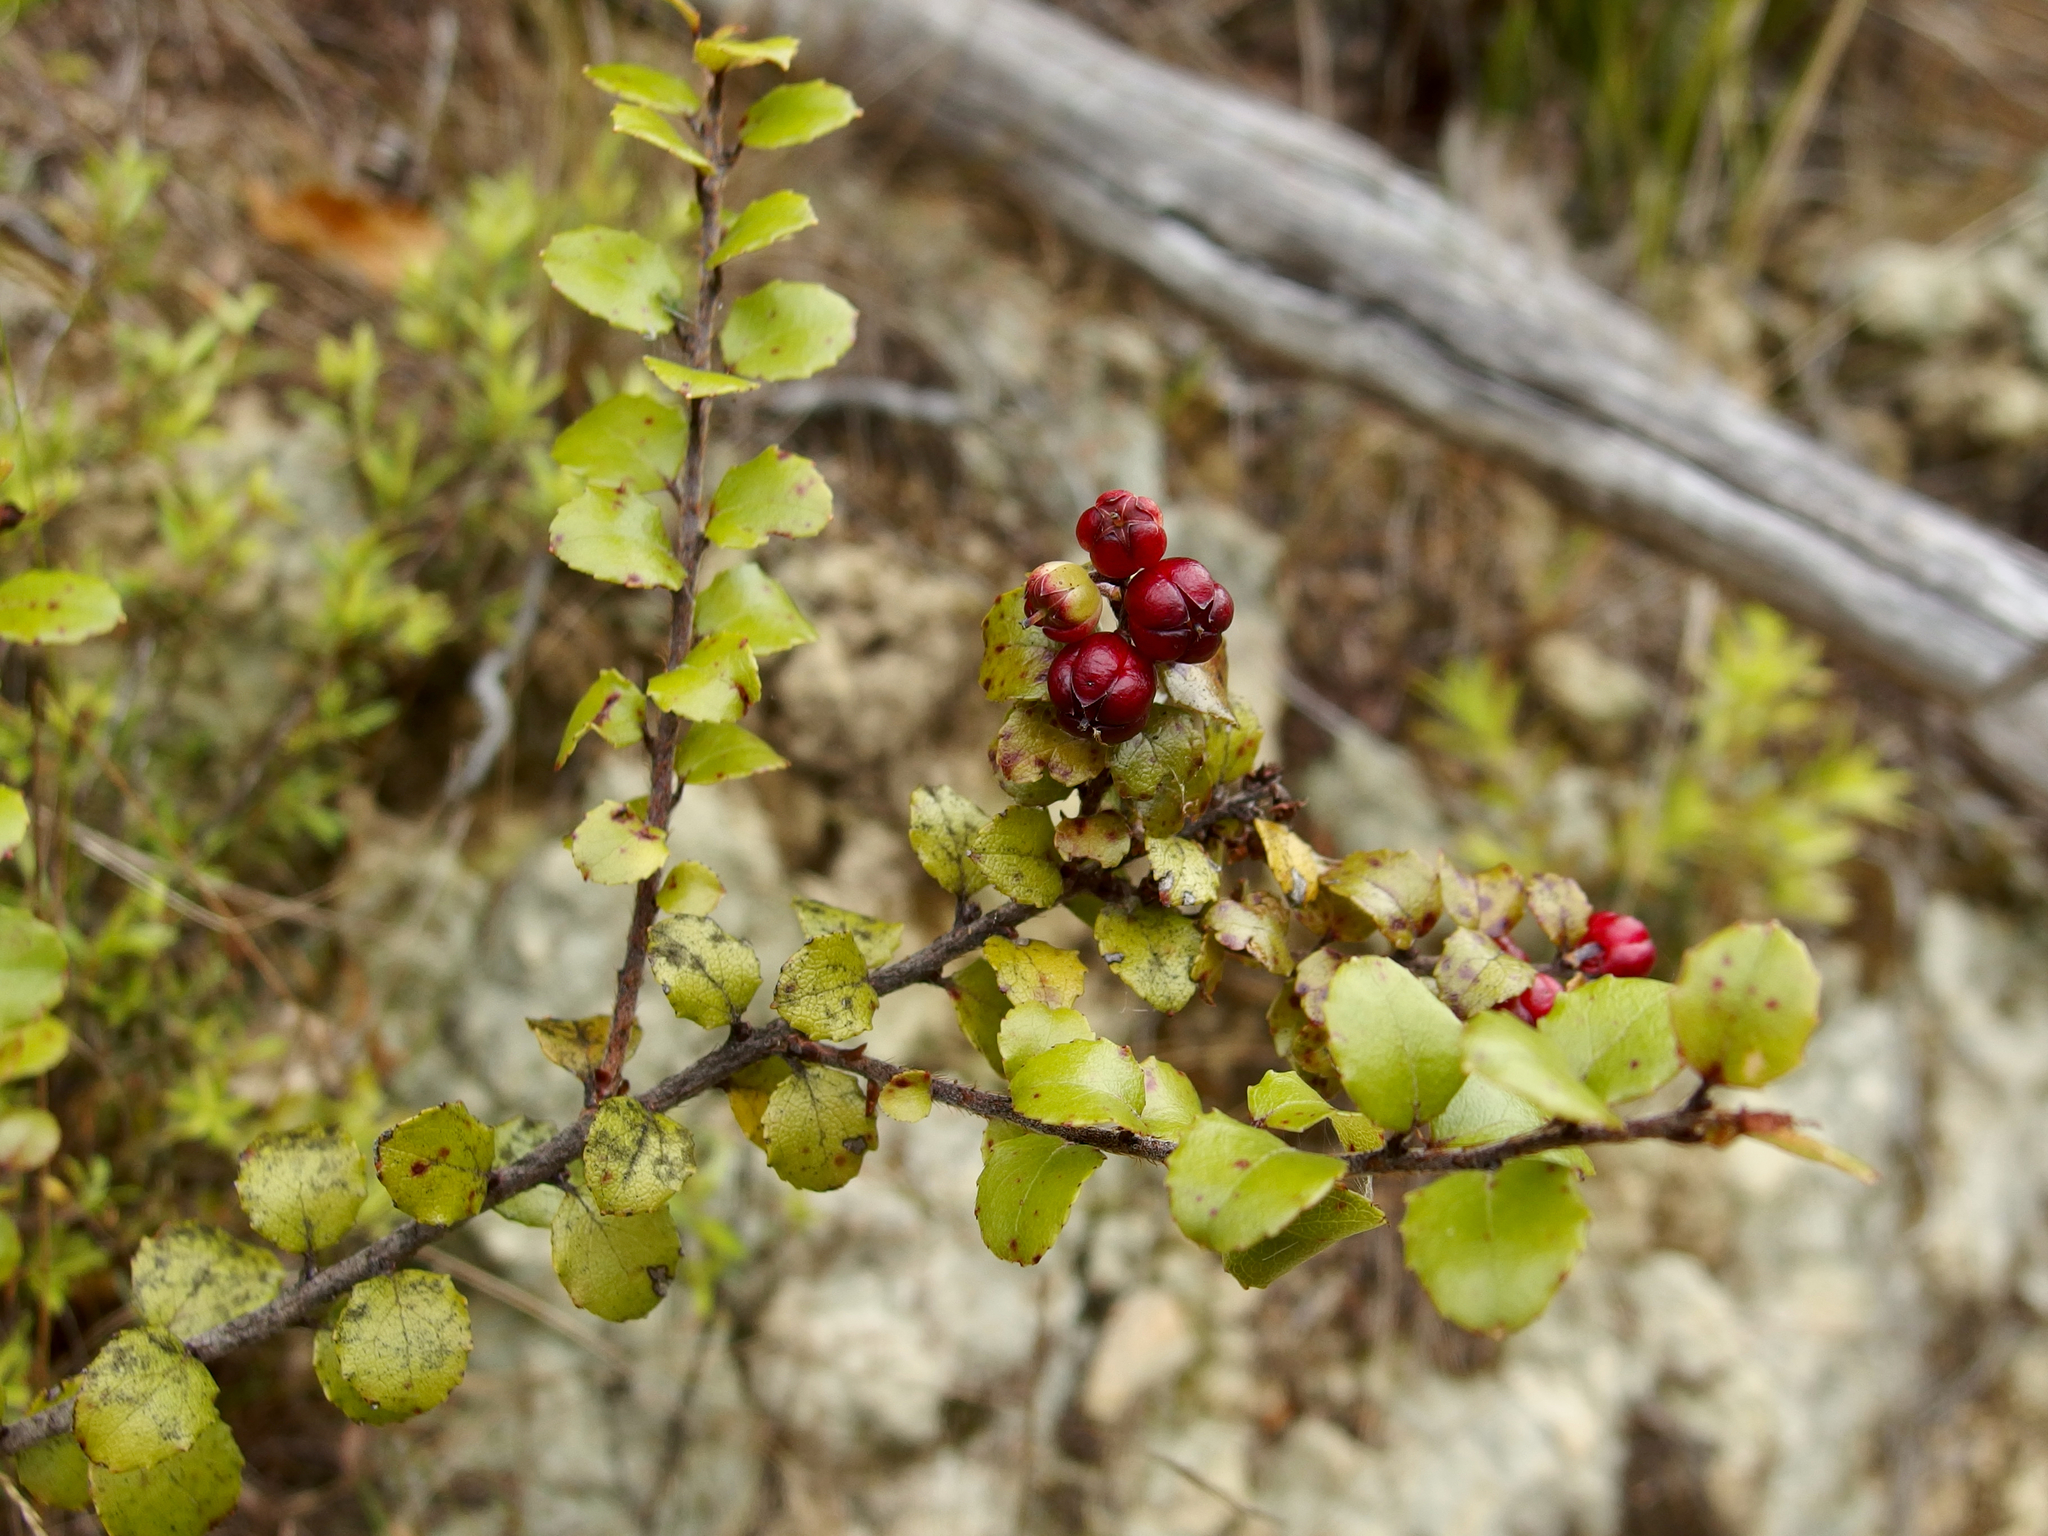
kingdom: Plantae
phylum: Tracheophyta
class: Magnoliopsida
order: Ericales
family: Ericaceae
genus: Gaultheria
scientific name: Gaultheria antipoda
